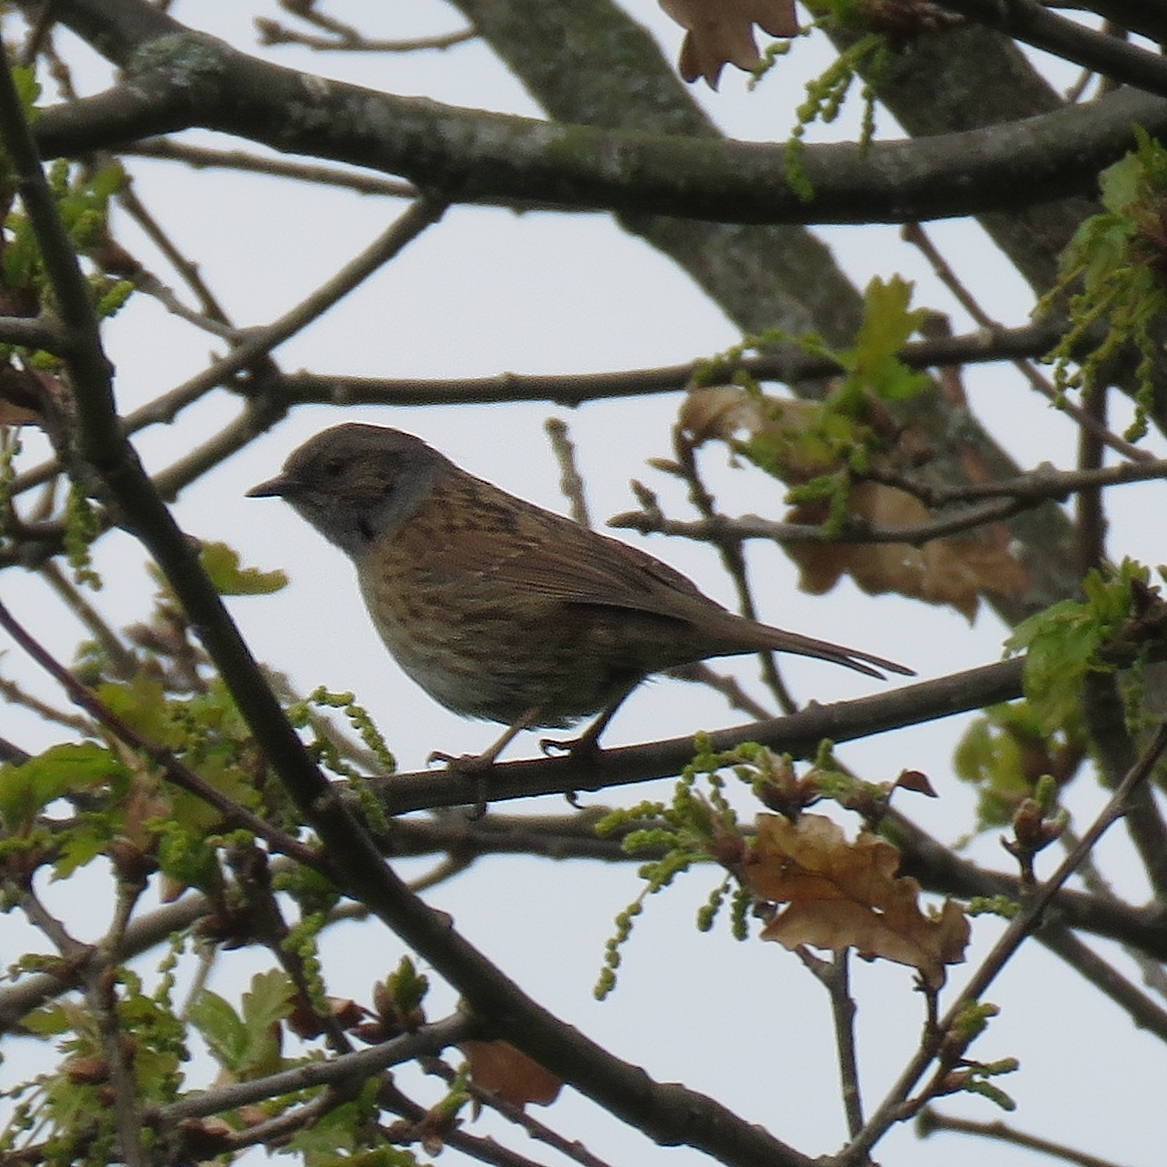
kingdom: Animalia
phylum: Chordata
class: Aves
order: Passeriformes
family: Prunellidae
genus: Prunella
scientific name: Prunella modularis
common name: Dunnock
